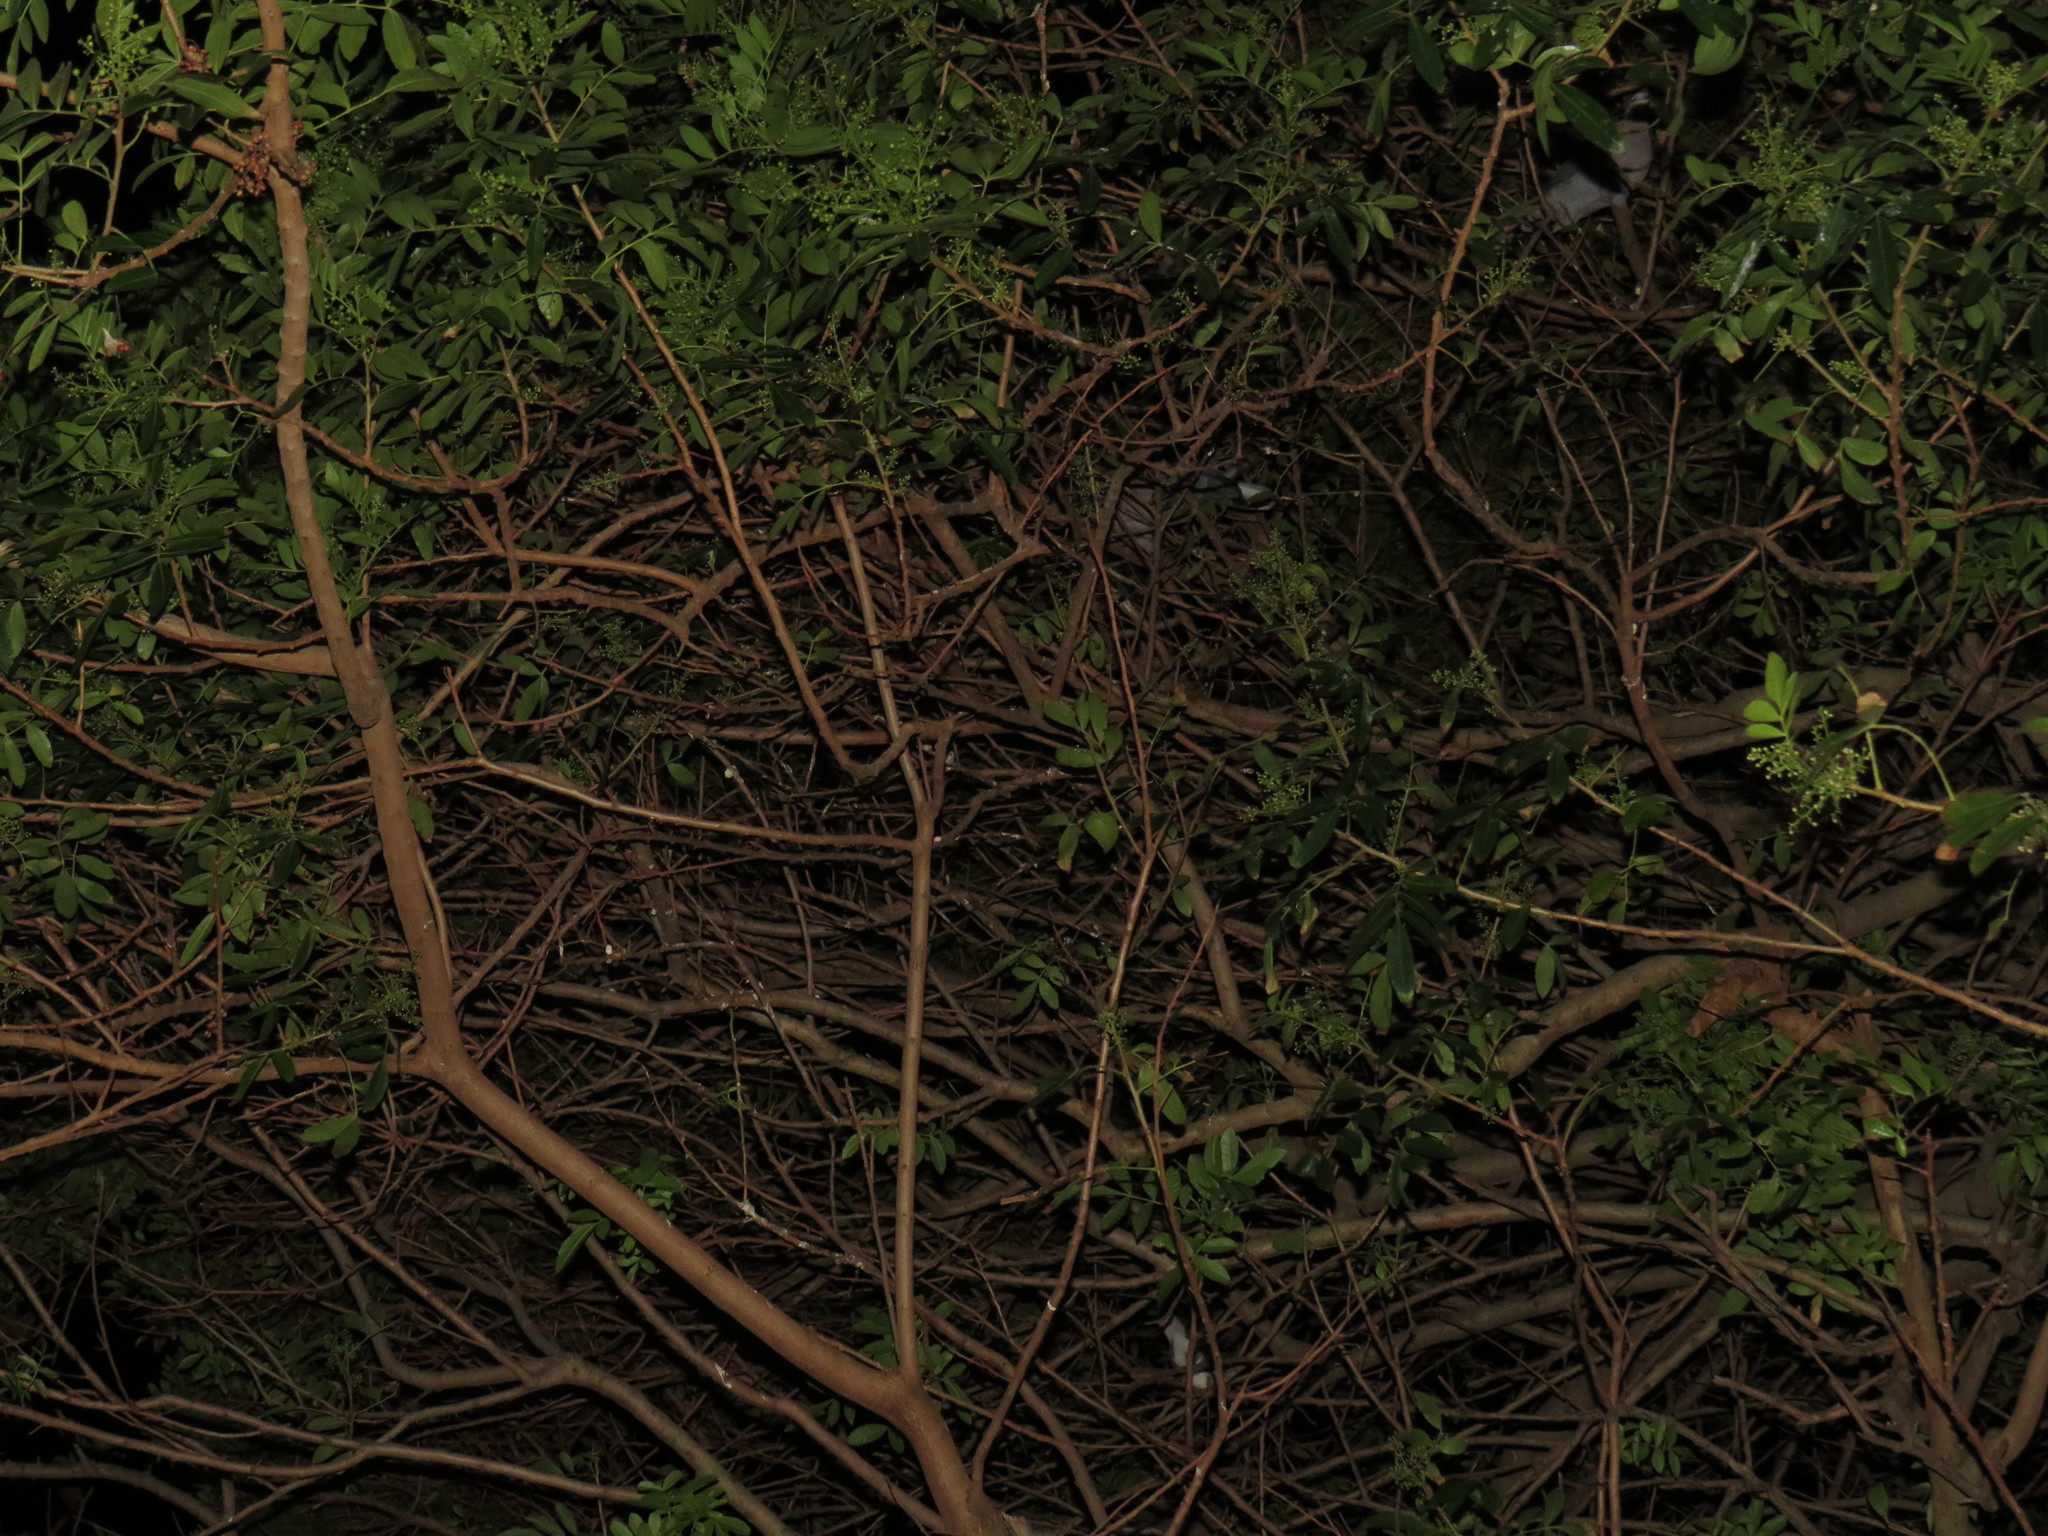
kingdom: Animalia
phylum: Chordata
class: Aves
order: Columbiformes
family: Columbidae
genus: Streptopelia
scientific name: Streptopelia semitorquata
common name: Red-eyed dove
